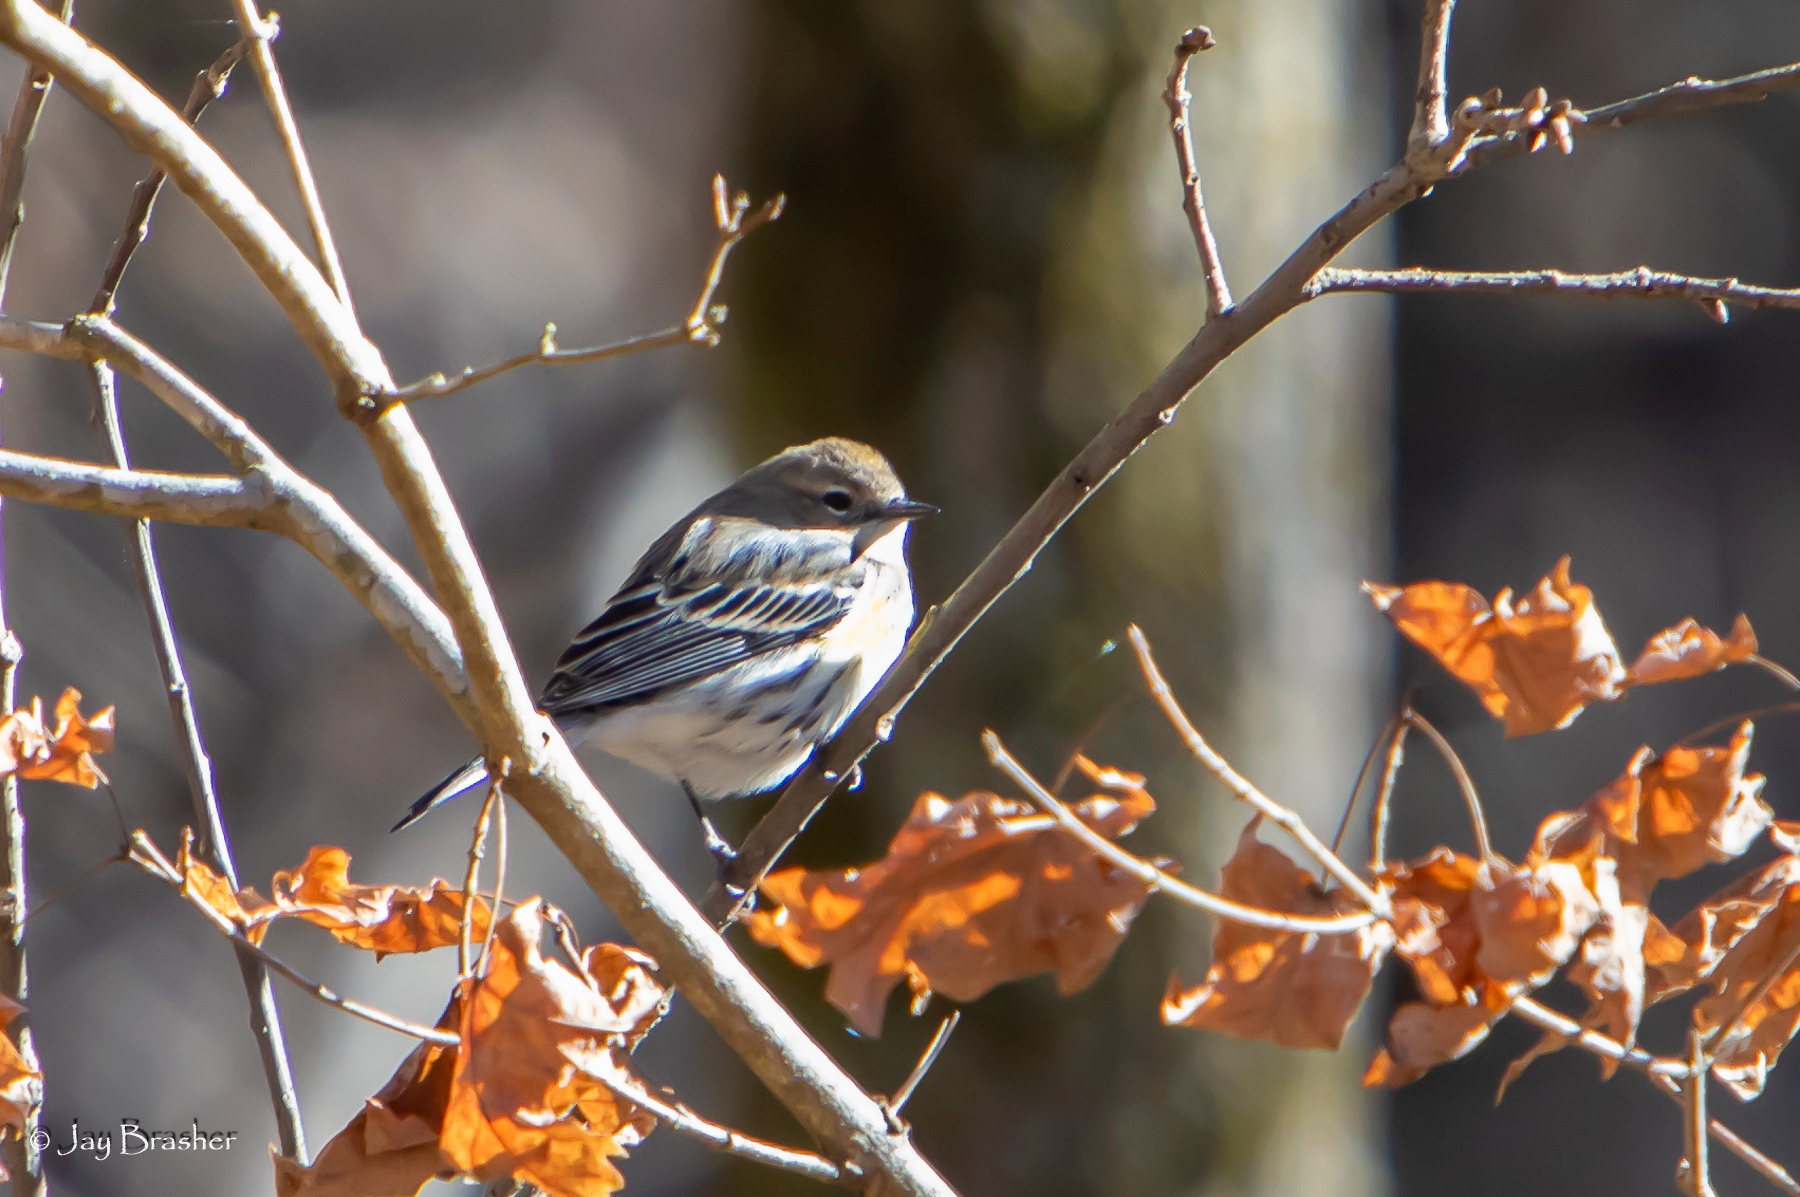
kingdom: Animalia
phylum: Chordata
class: Aves
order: Passeriformes
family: Parulidae
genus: Setophaga
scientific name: Setophaga coronata
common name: Myrtle warbler
